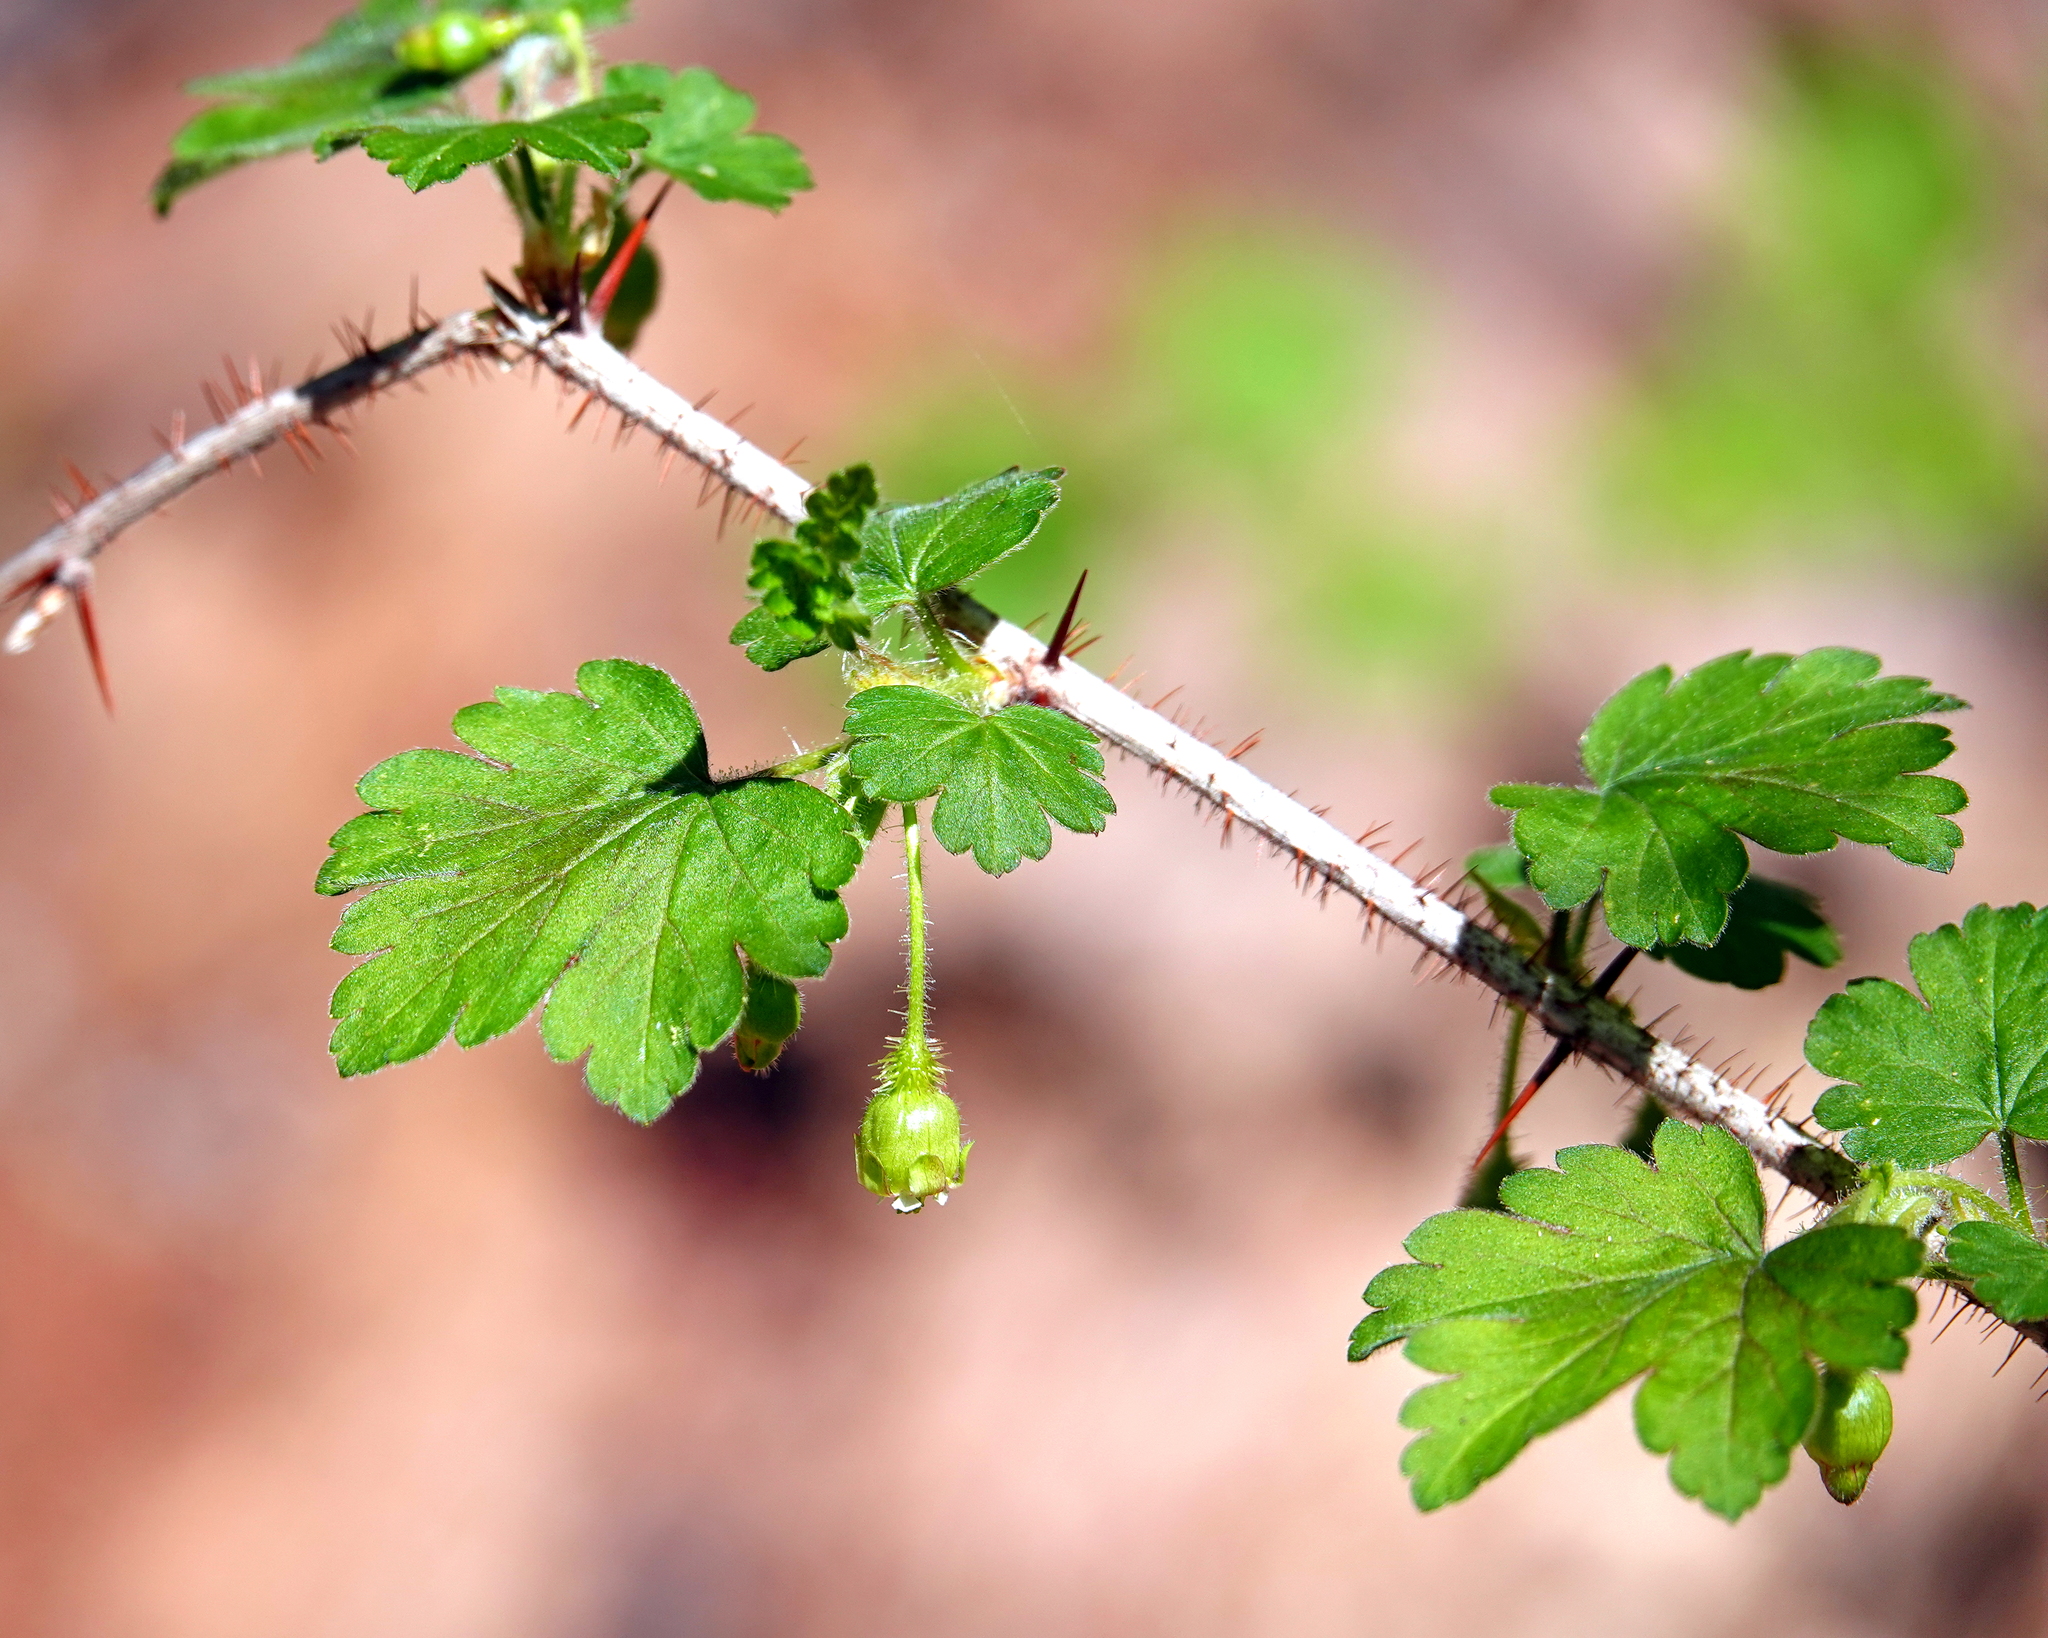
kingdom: Plantae
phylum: Tracheophyta
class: Magnoliopsida
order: Saxifragales
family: Grossulariaceae
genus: Ribes
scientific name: Ribes cynosbati
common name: American gooseberry
